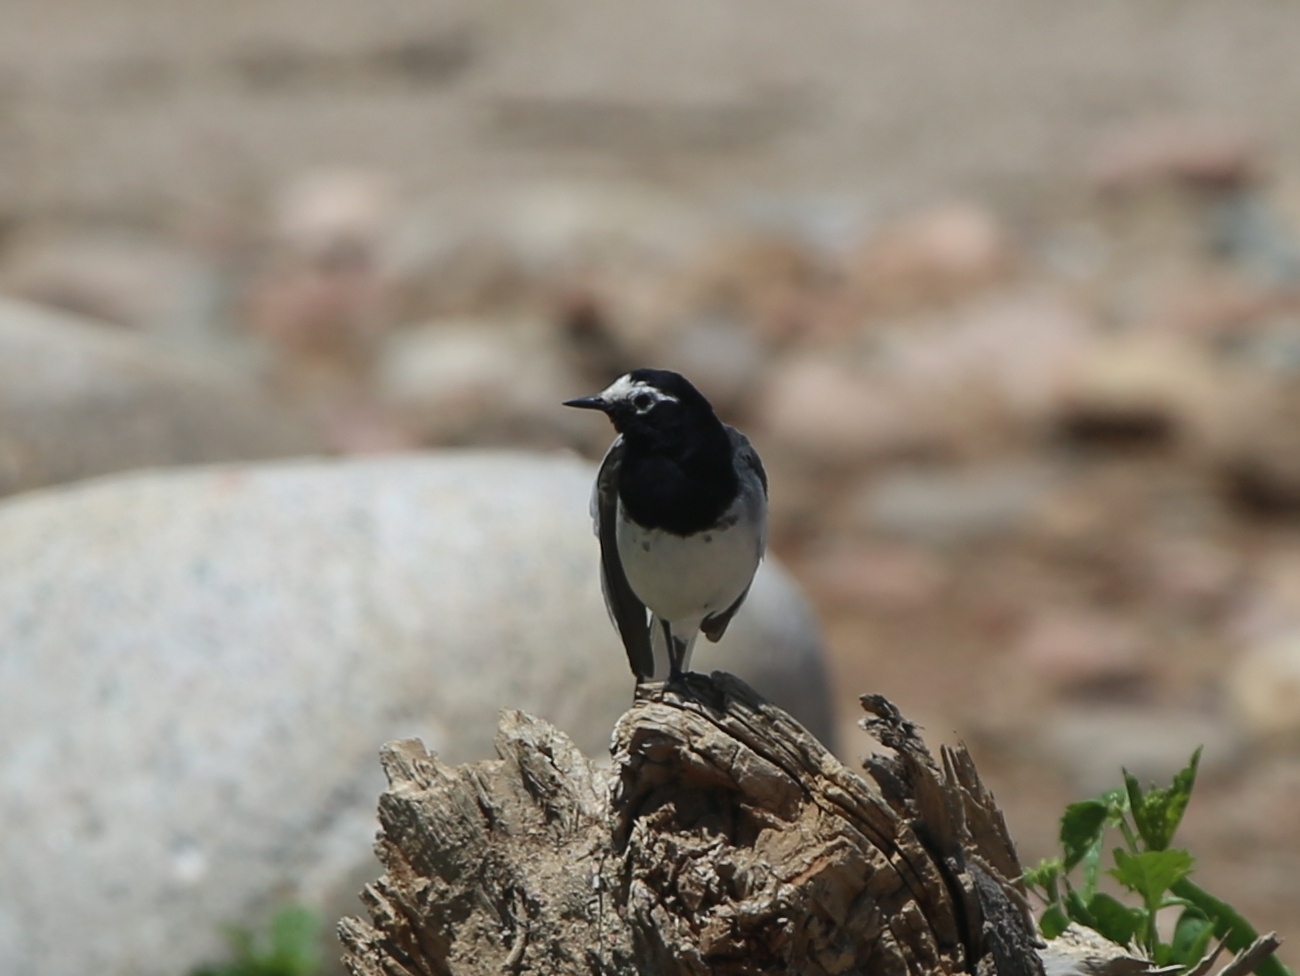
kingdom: Animalia
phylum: Chordata
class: Aves
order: Passeriformes
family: Motacillidae
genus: Motacilla
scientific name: Motacilla alba
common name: White wagtail
